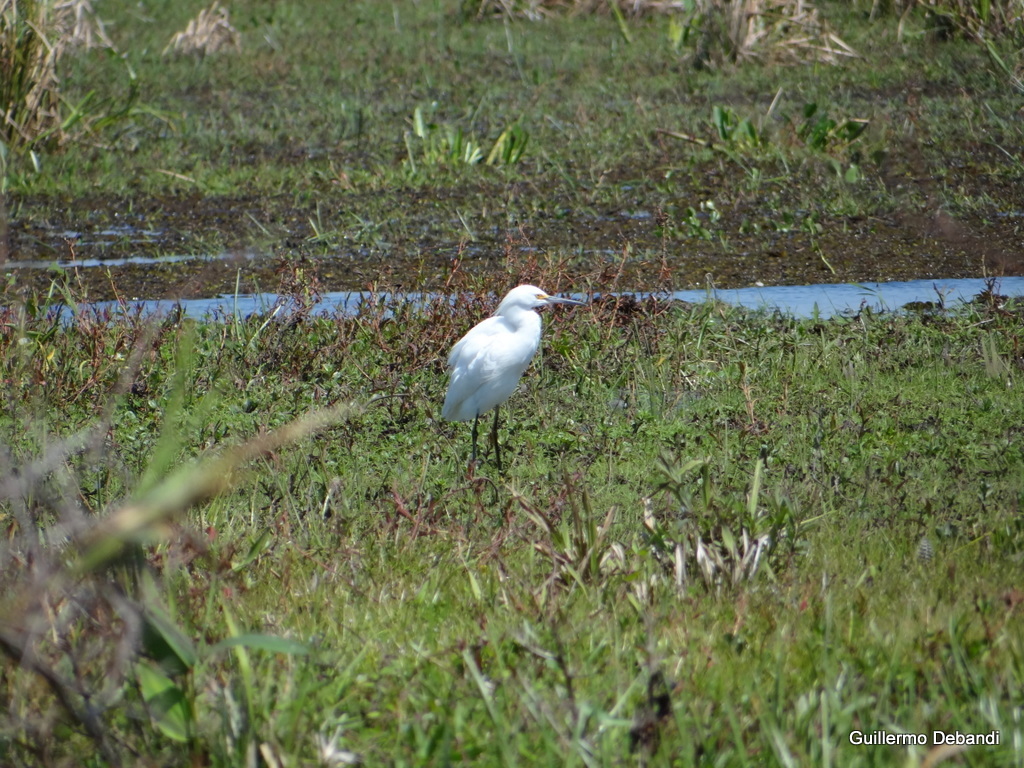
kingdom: Animalia
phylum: Chordata
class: Aves
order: Pelecaniformes
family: Ardeidae
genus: Egretta
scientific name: Egretta thula
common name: Snowy egret
